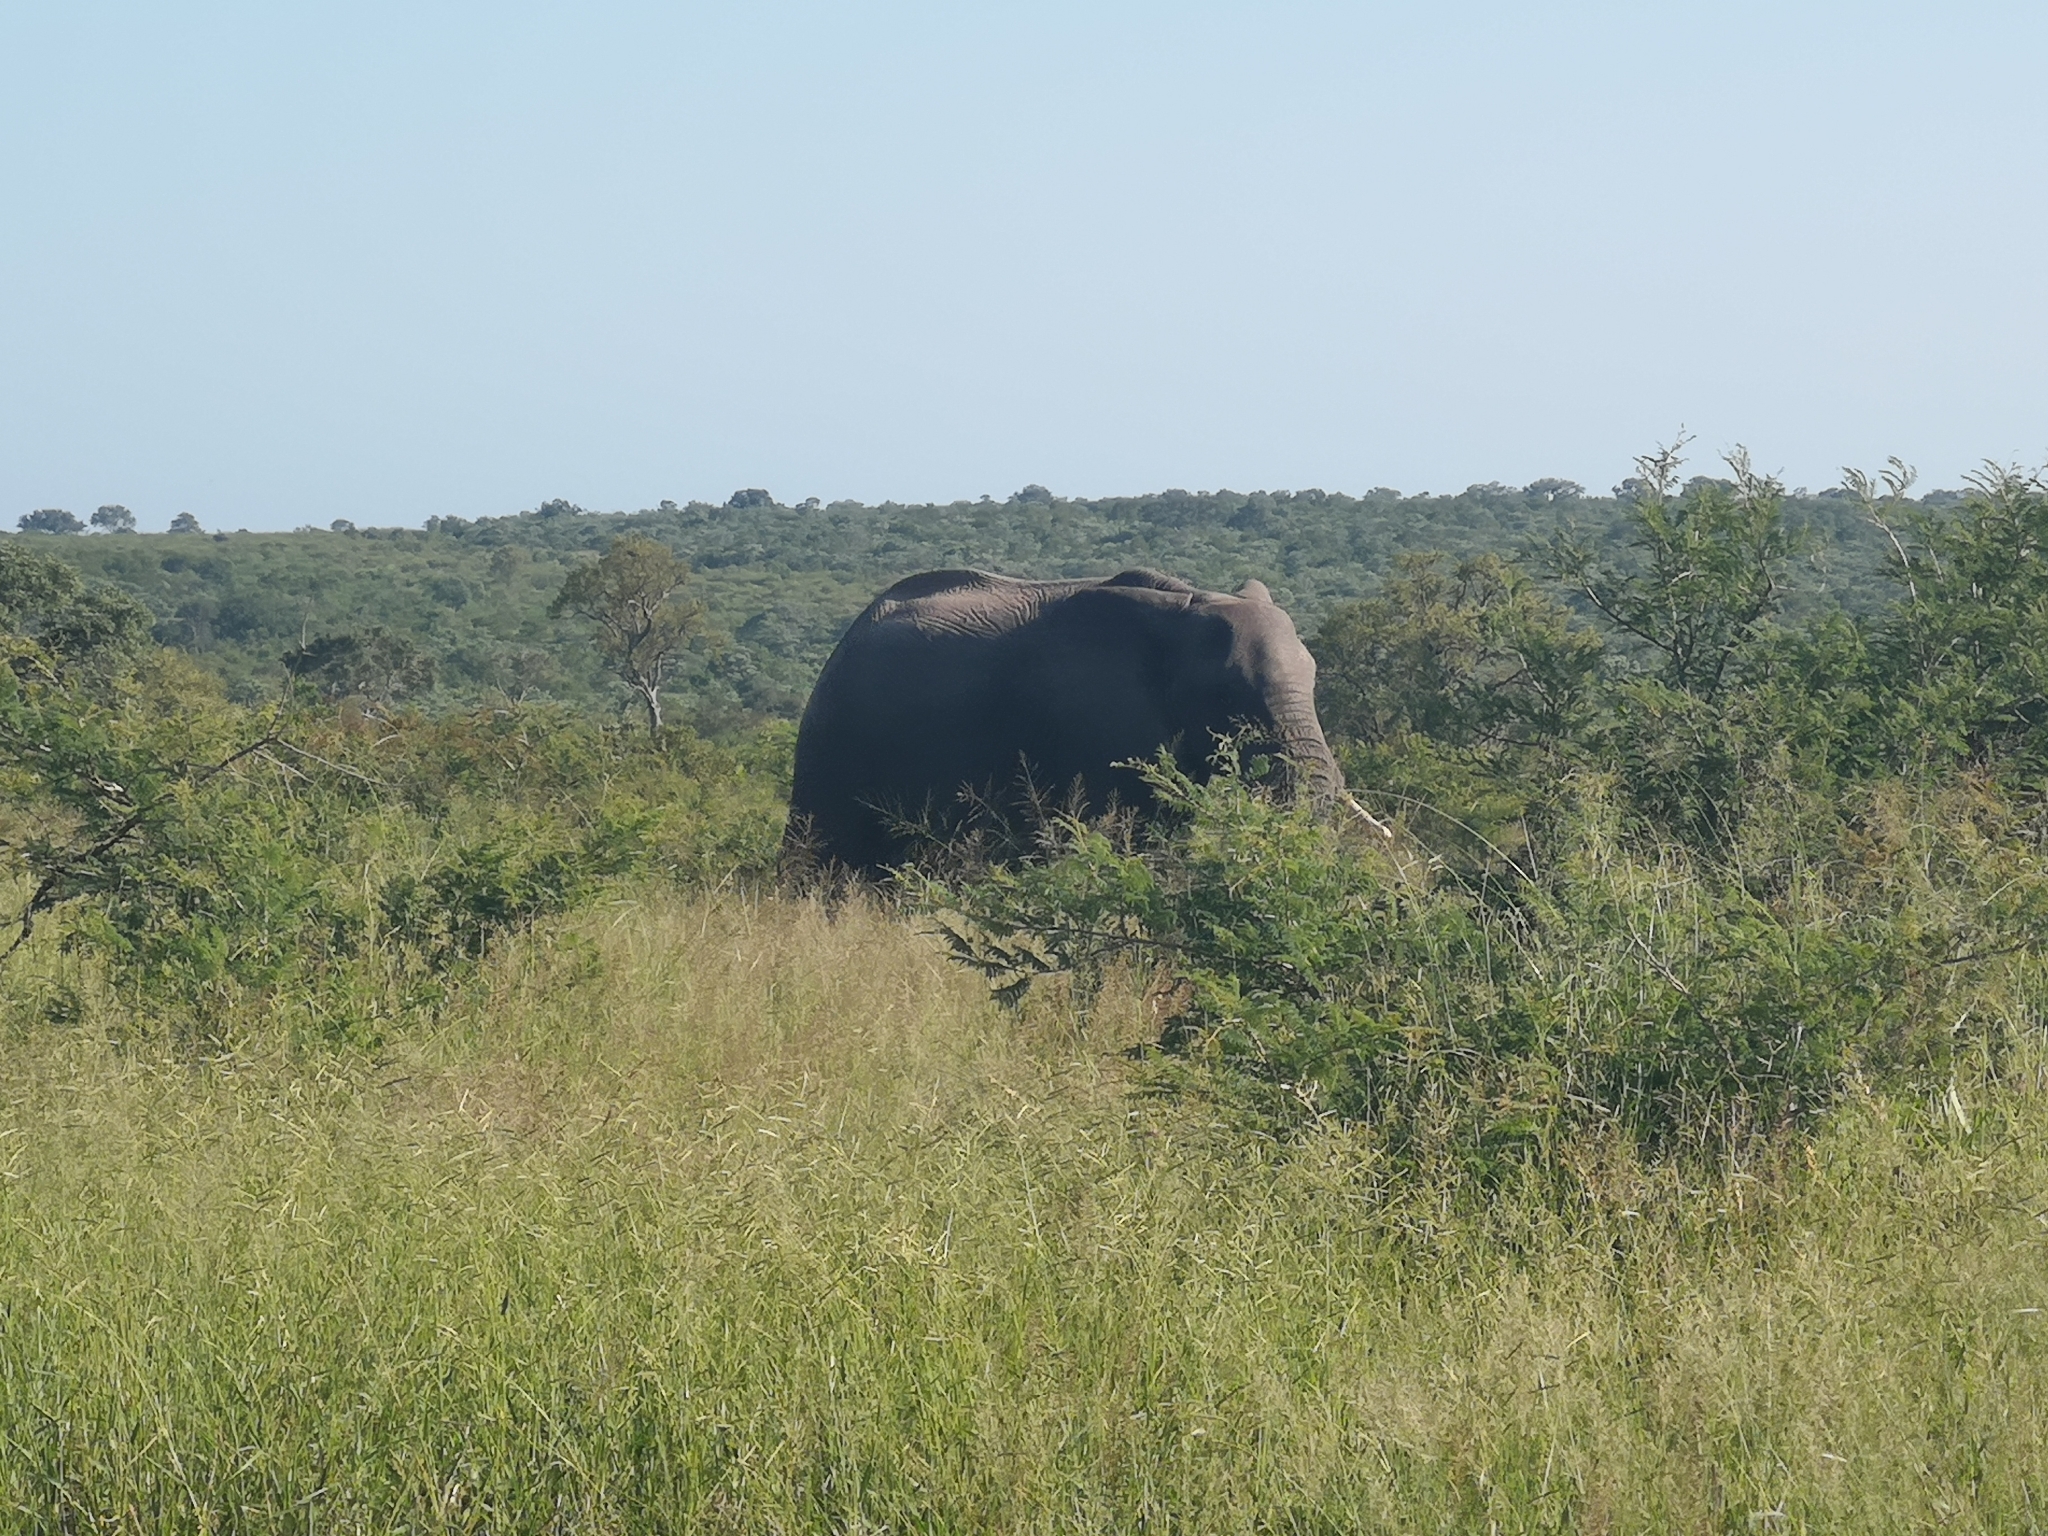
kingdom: Animalia
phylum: Chordata
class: Mammalia
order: Proboscidea
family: Elephantidae
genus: Loxodonta
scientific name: Loxodonta africana
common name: African elephant
